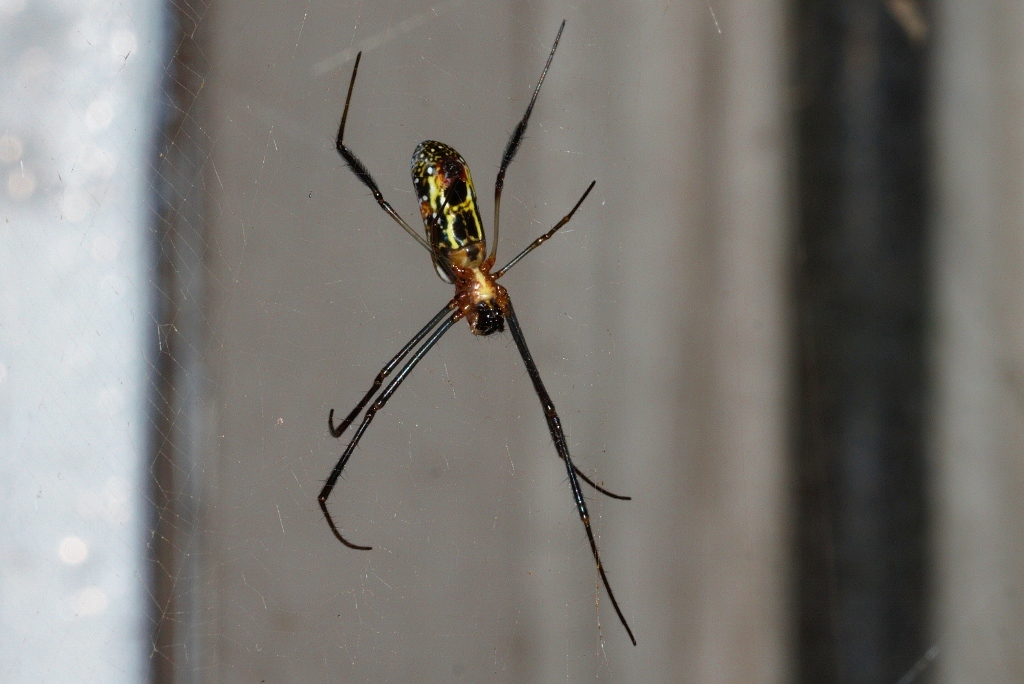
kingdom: Animalia
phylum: Arthropoda
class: Arachnida
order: Araneae
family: Araneidae
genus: Trichonephila
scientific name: Trichonephila fenestrata
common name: Hairy golden orb weaver
